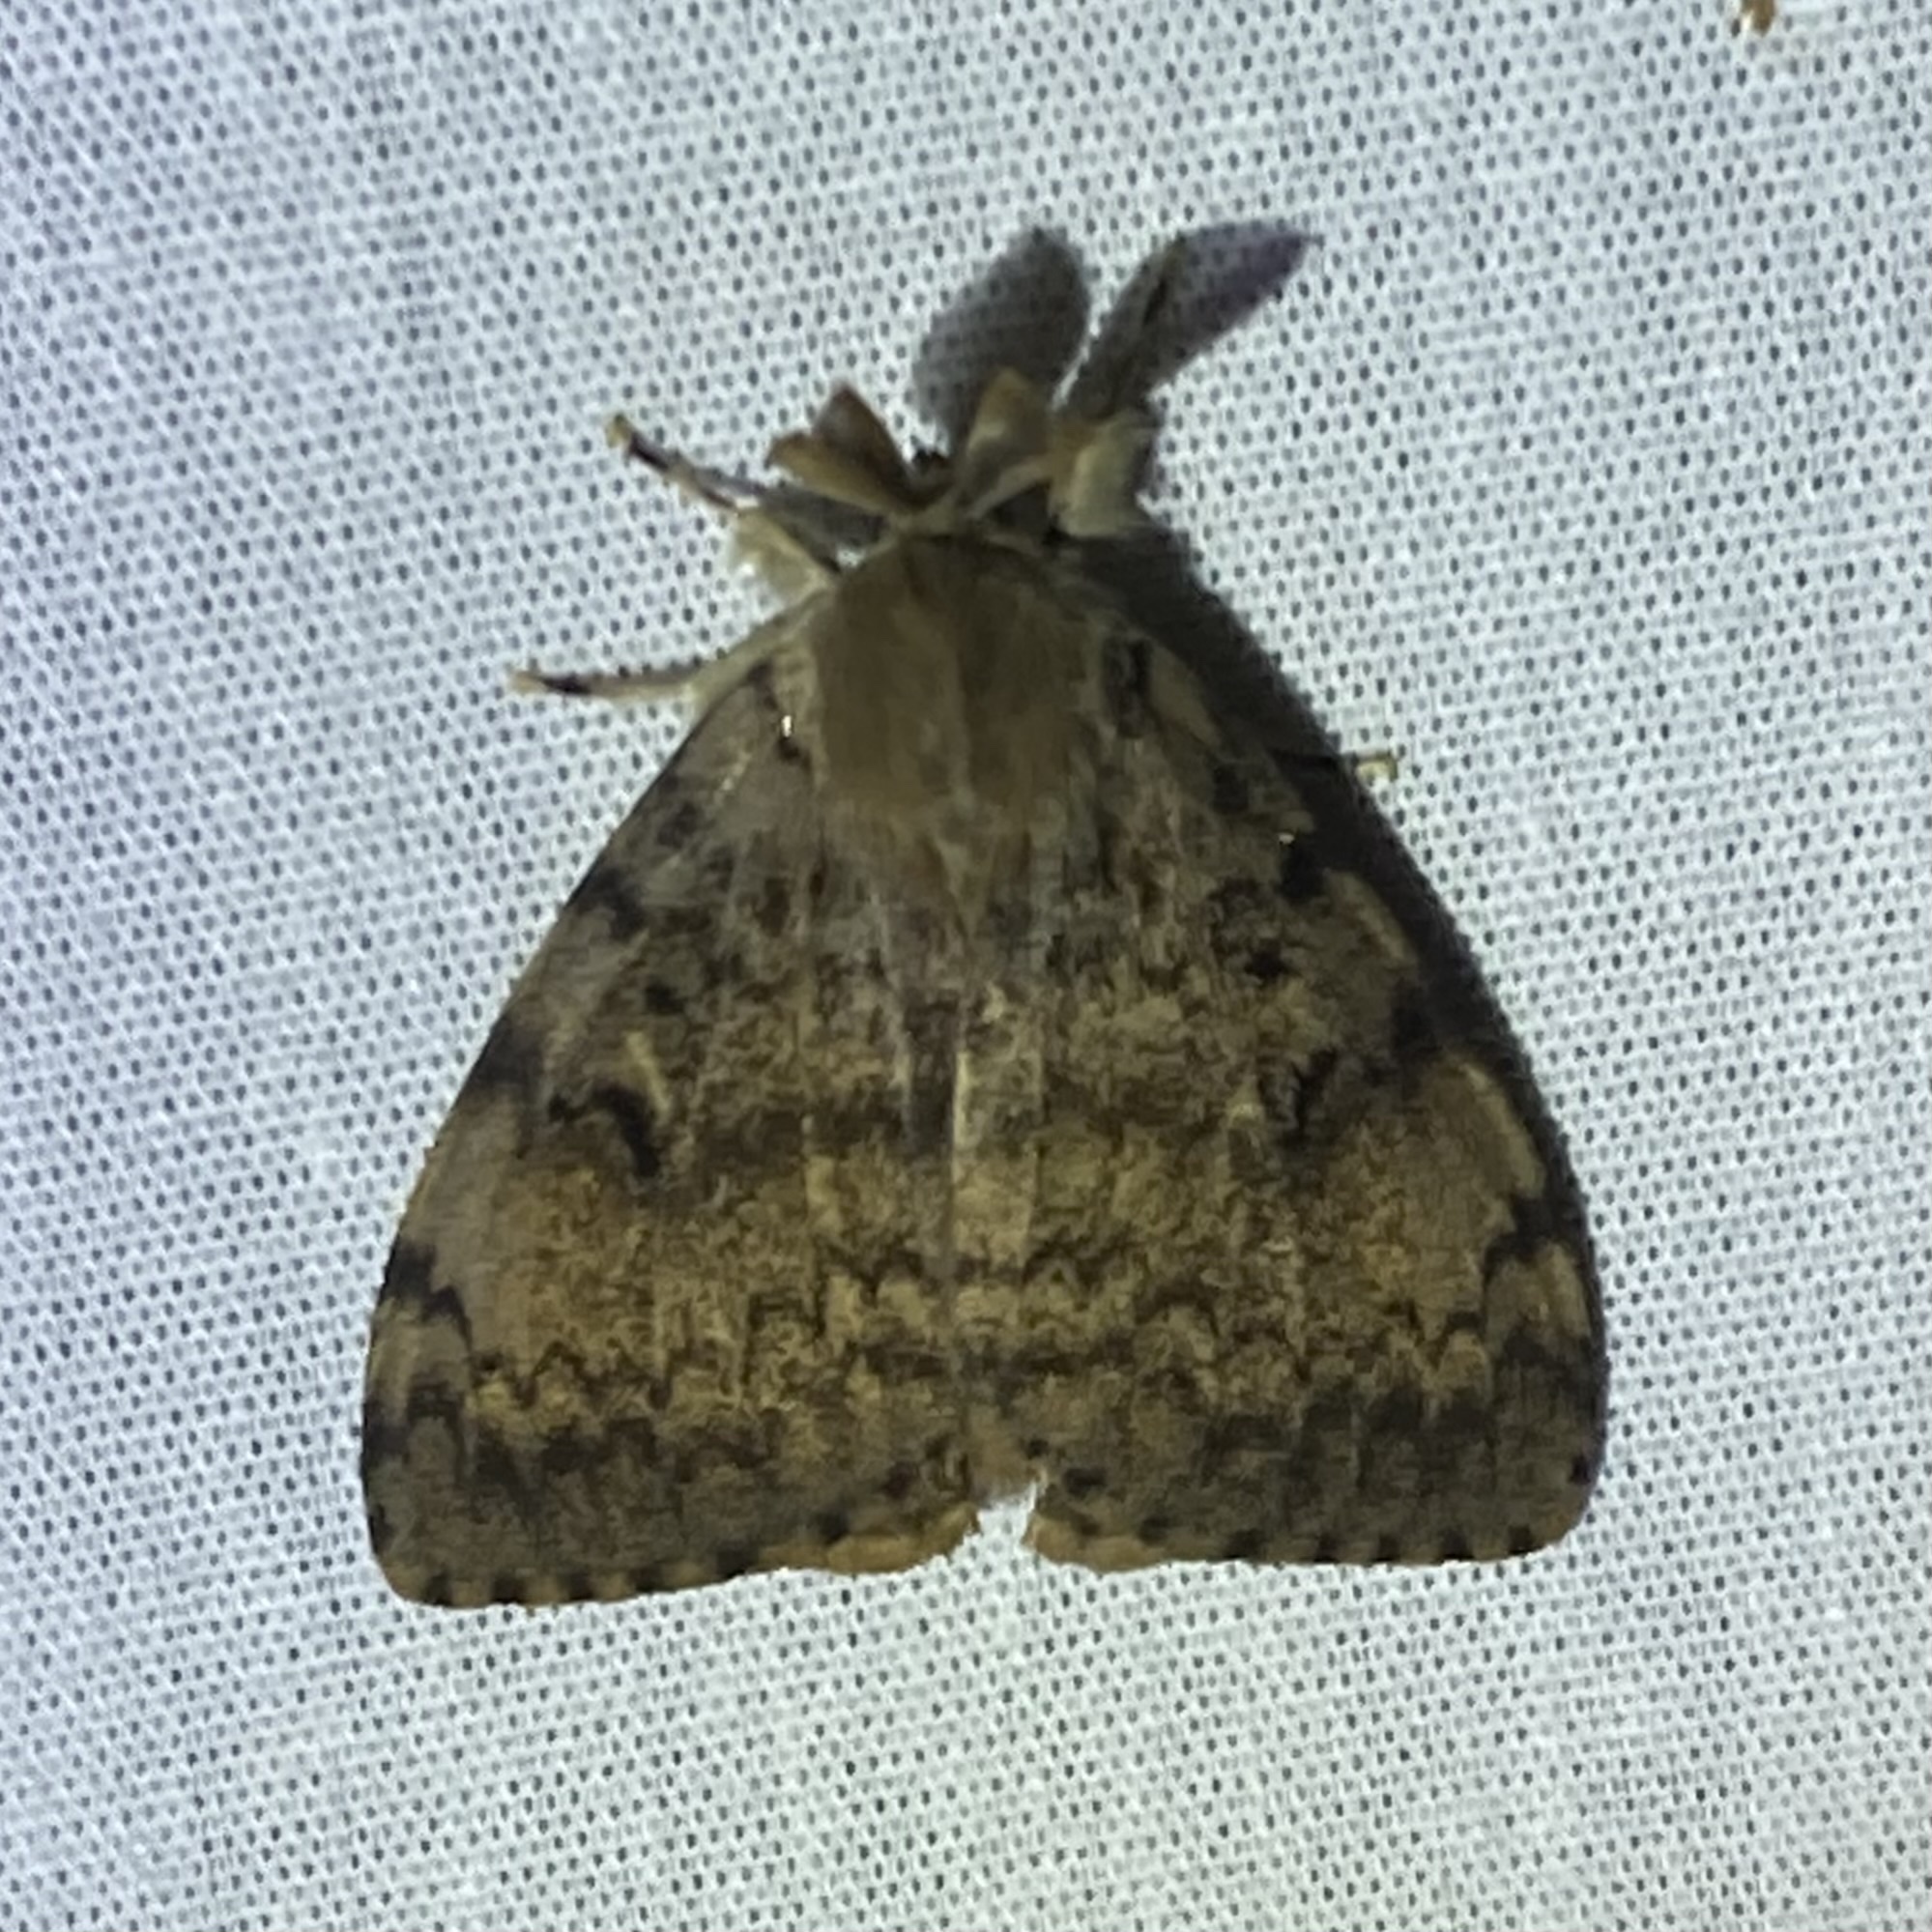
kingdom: Animalia
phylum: Arthropoda
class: Insecta
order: Lepidoptera
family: Erebidae
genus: Lymantria
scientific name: Lymantria dispar
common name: Gypsy moth
